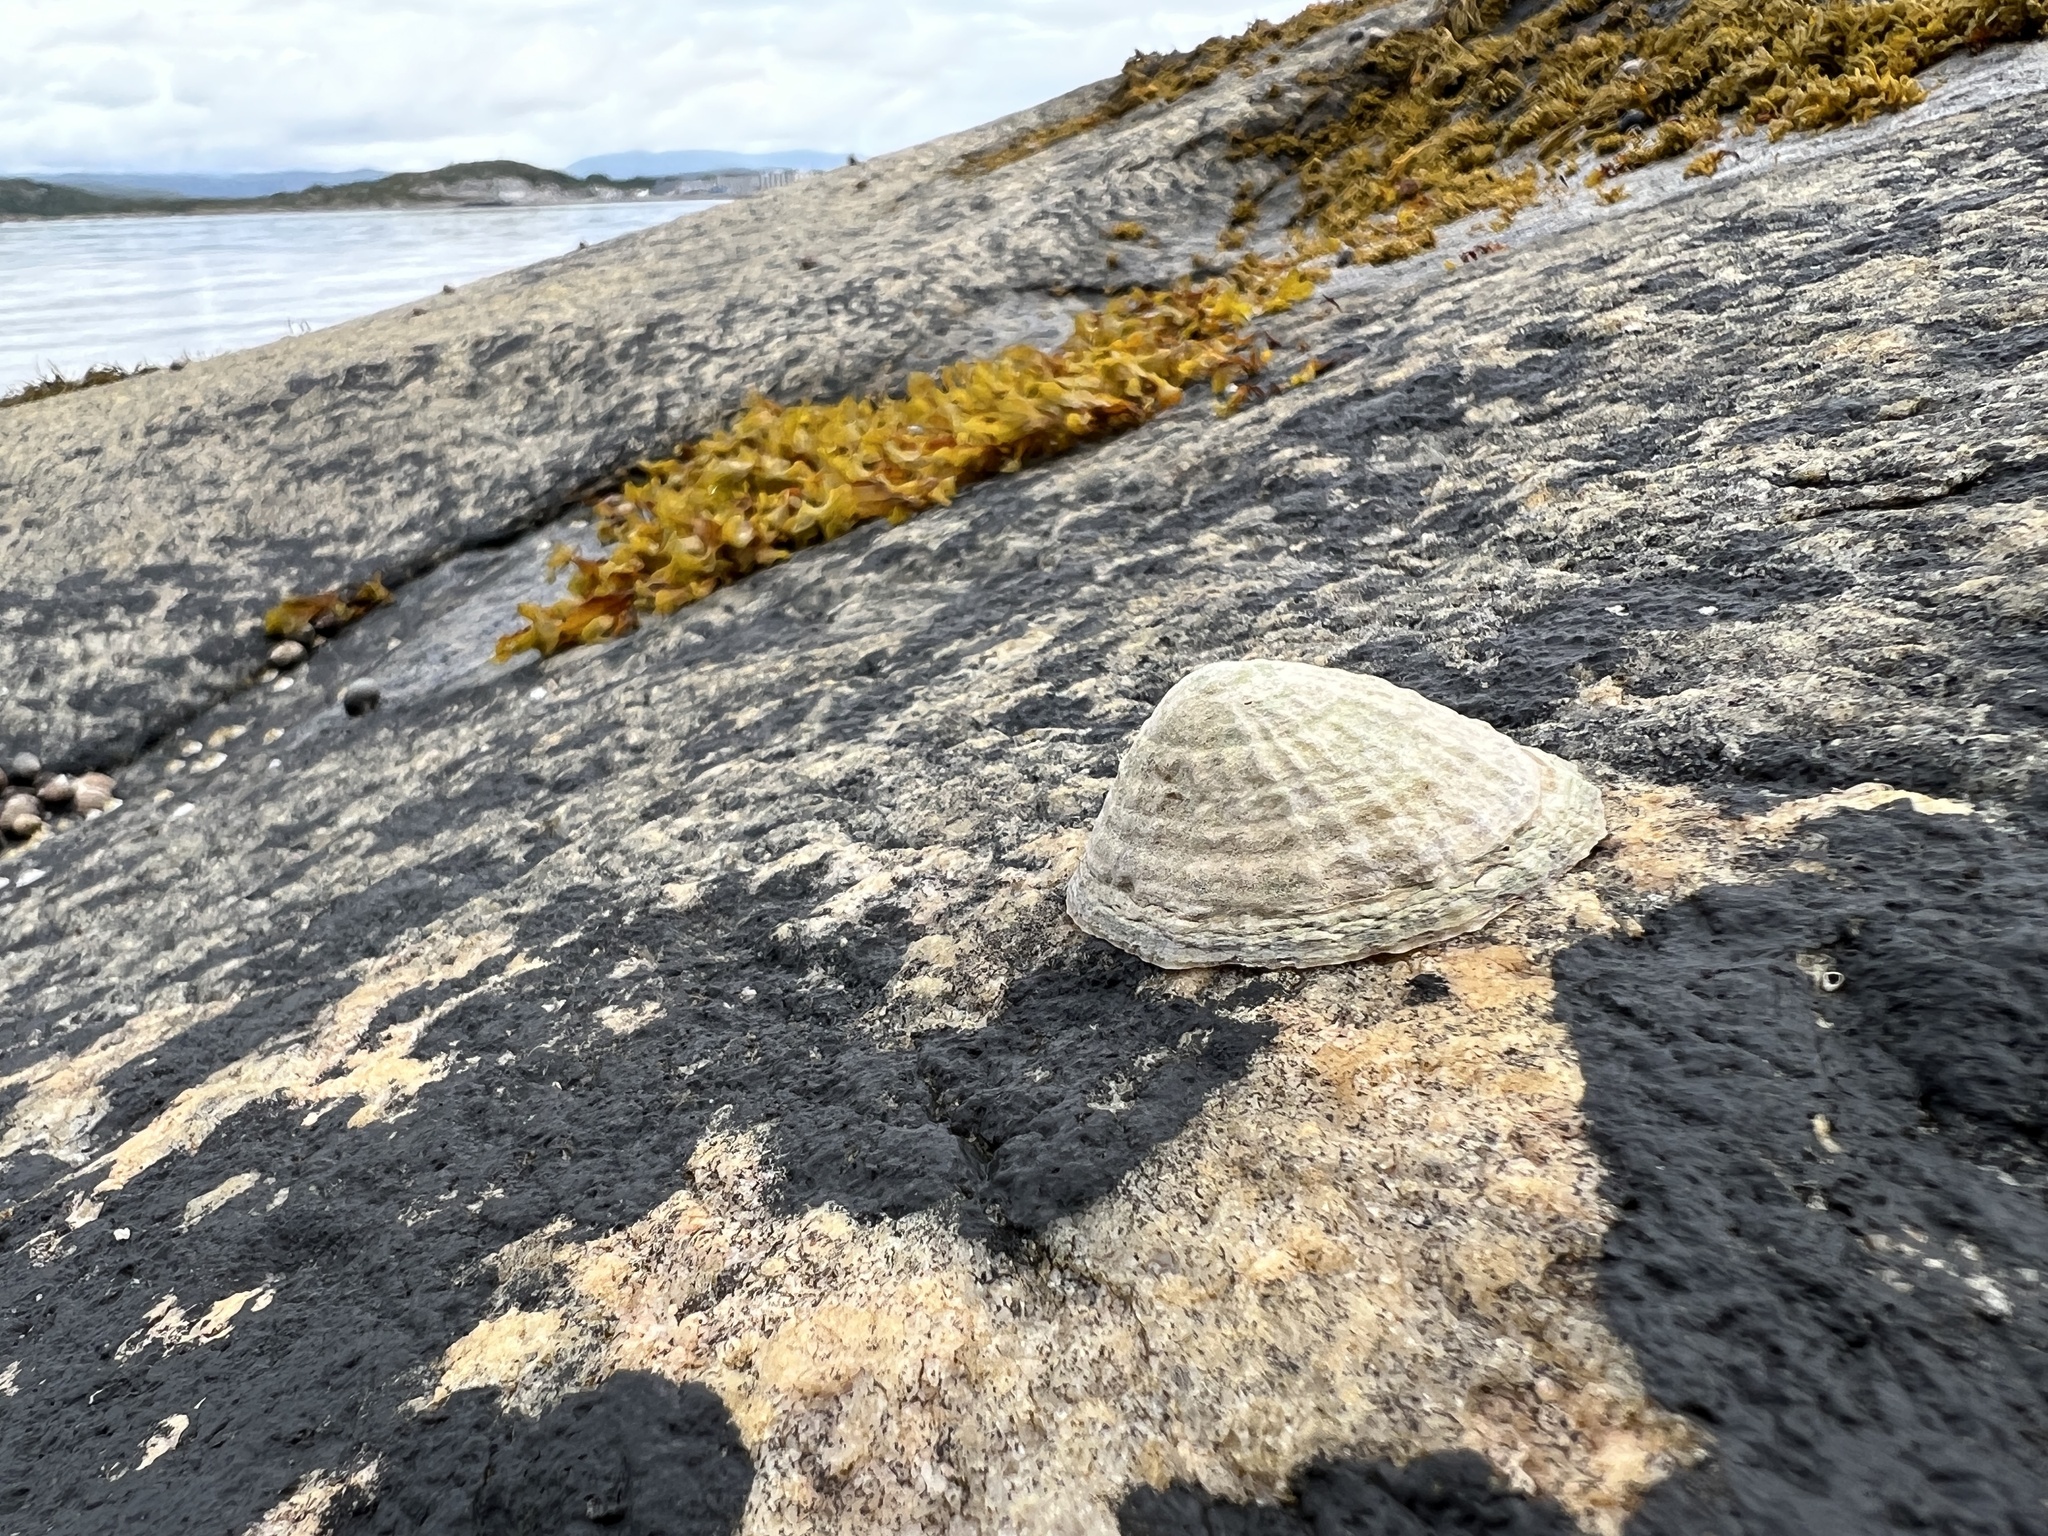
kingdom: Animalia
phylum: Mollusca
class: Gastropoda
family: Patellidae
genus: Patella
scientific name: Patella vulgata
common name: Common limpet
